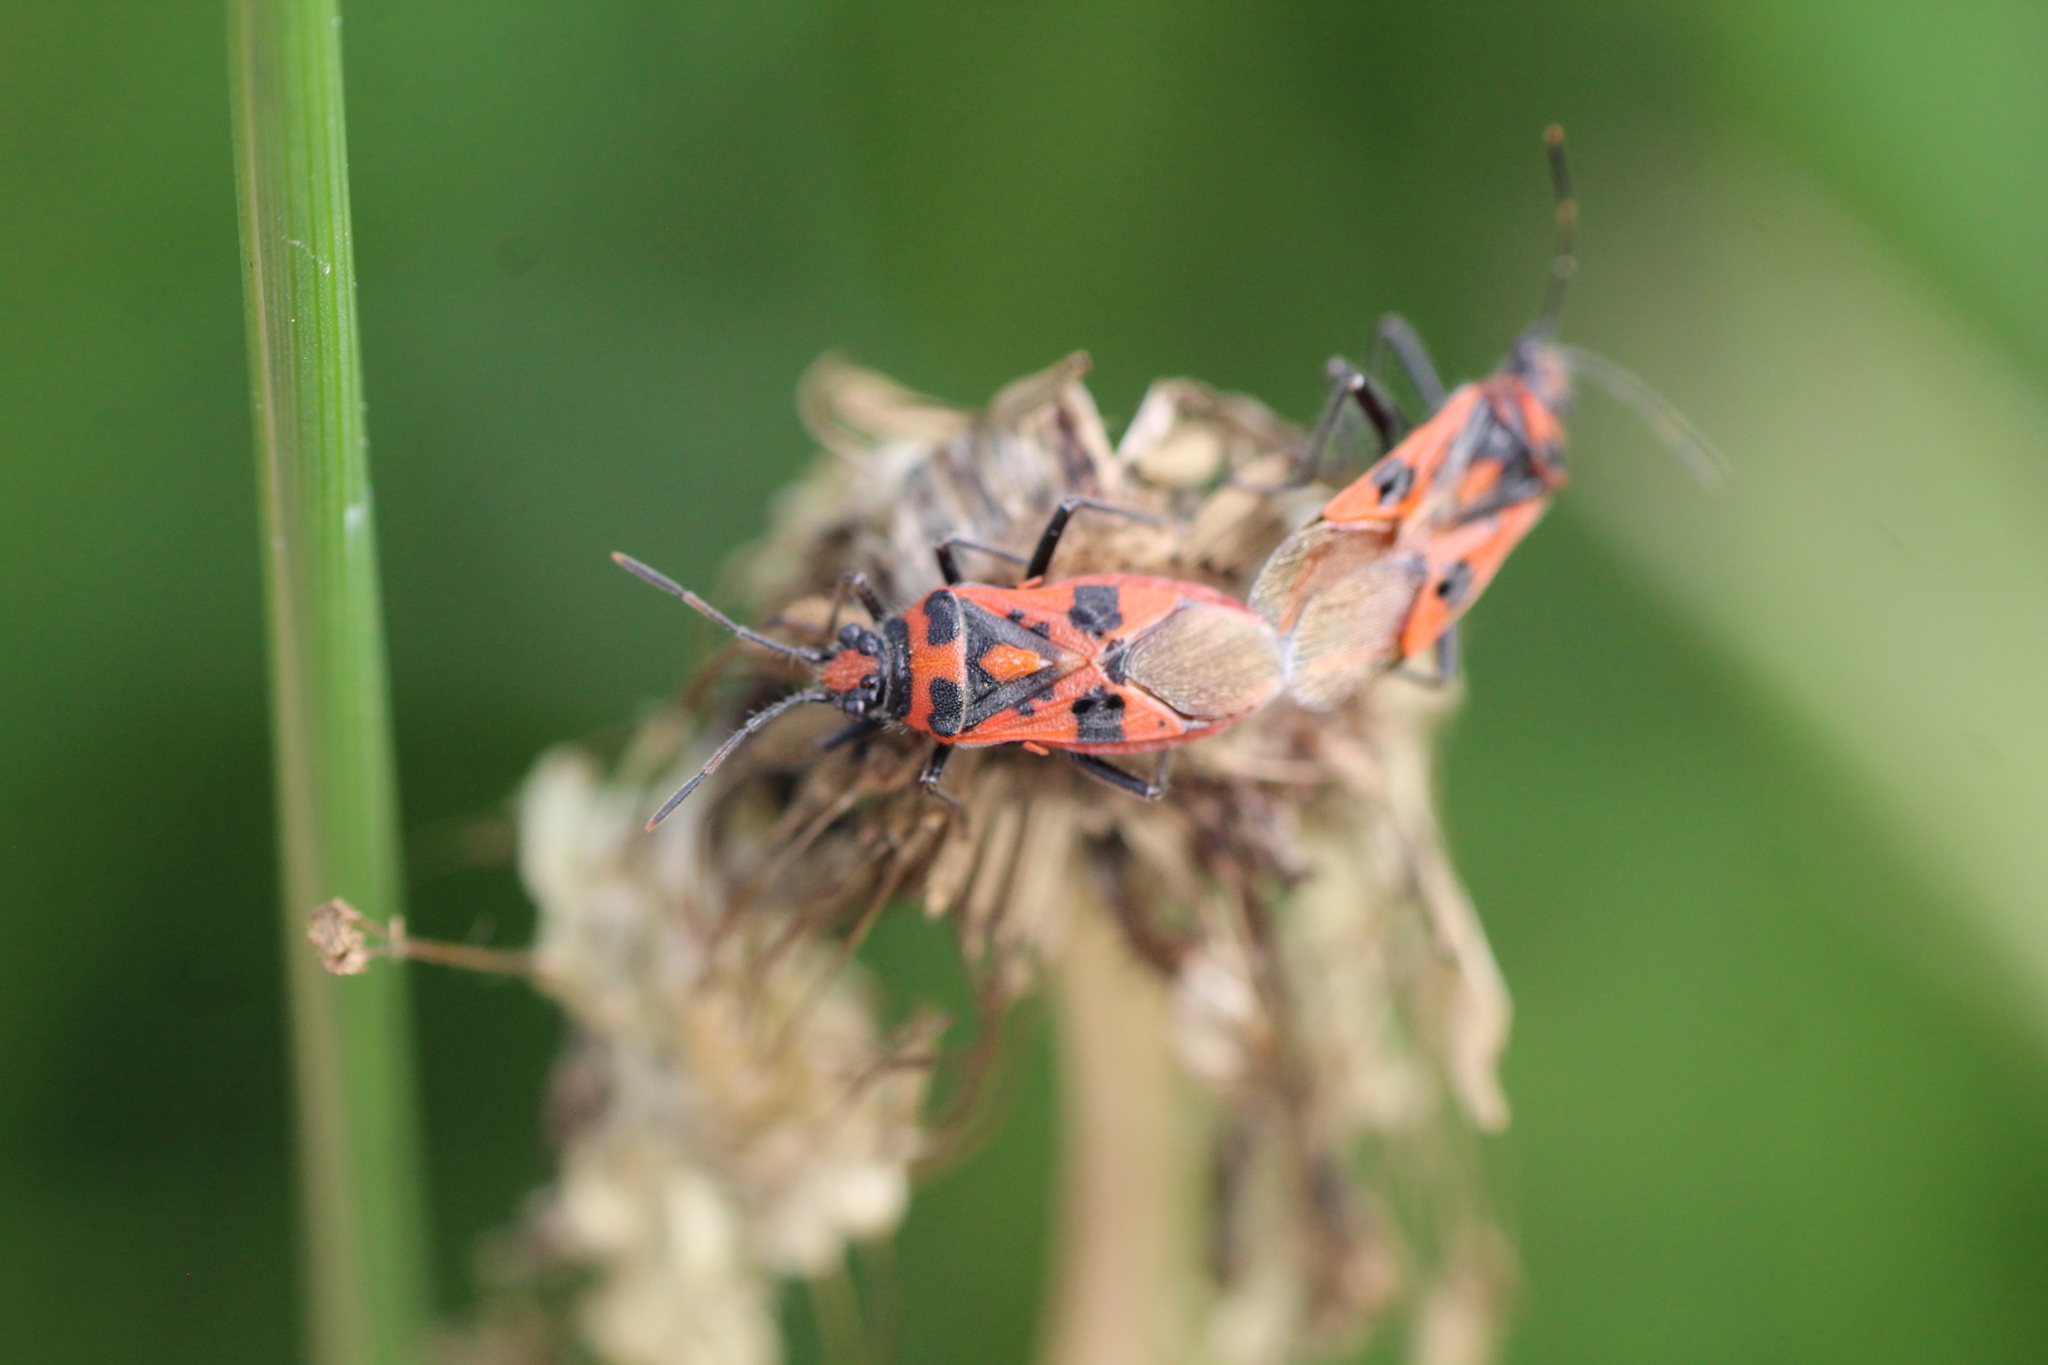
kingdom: Animalia
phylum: Arthropoda
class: Insecta
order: Hemiptera
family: Rhopalidae
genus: Corizus
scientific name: Corizus hyoscyami
